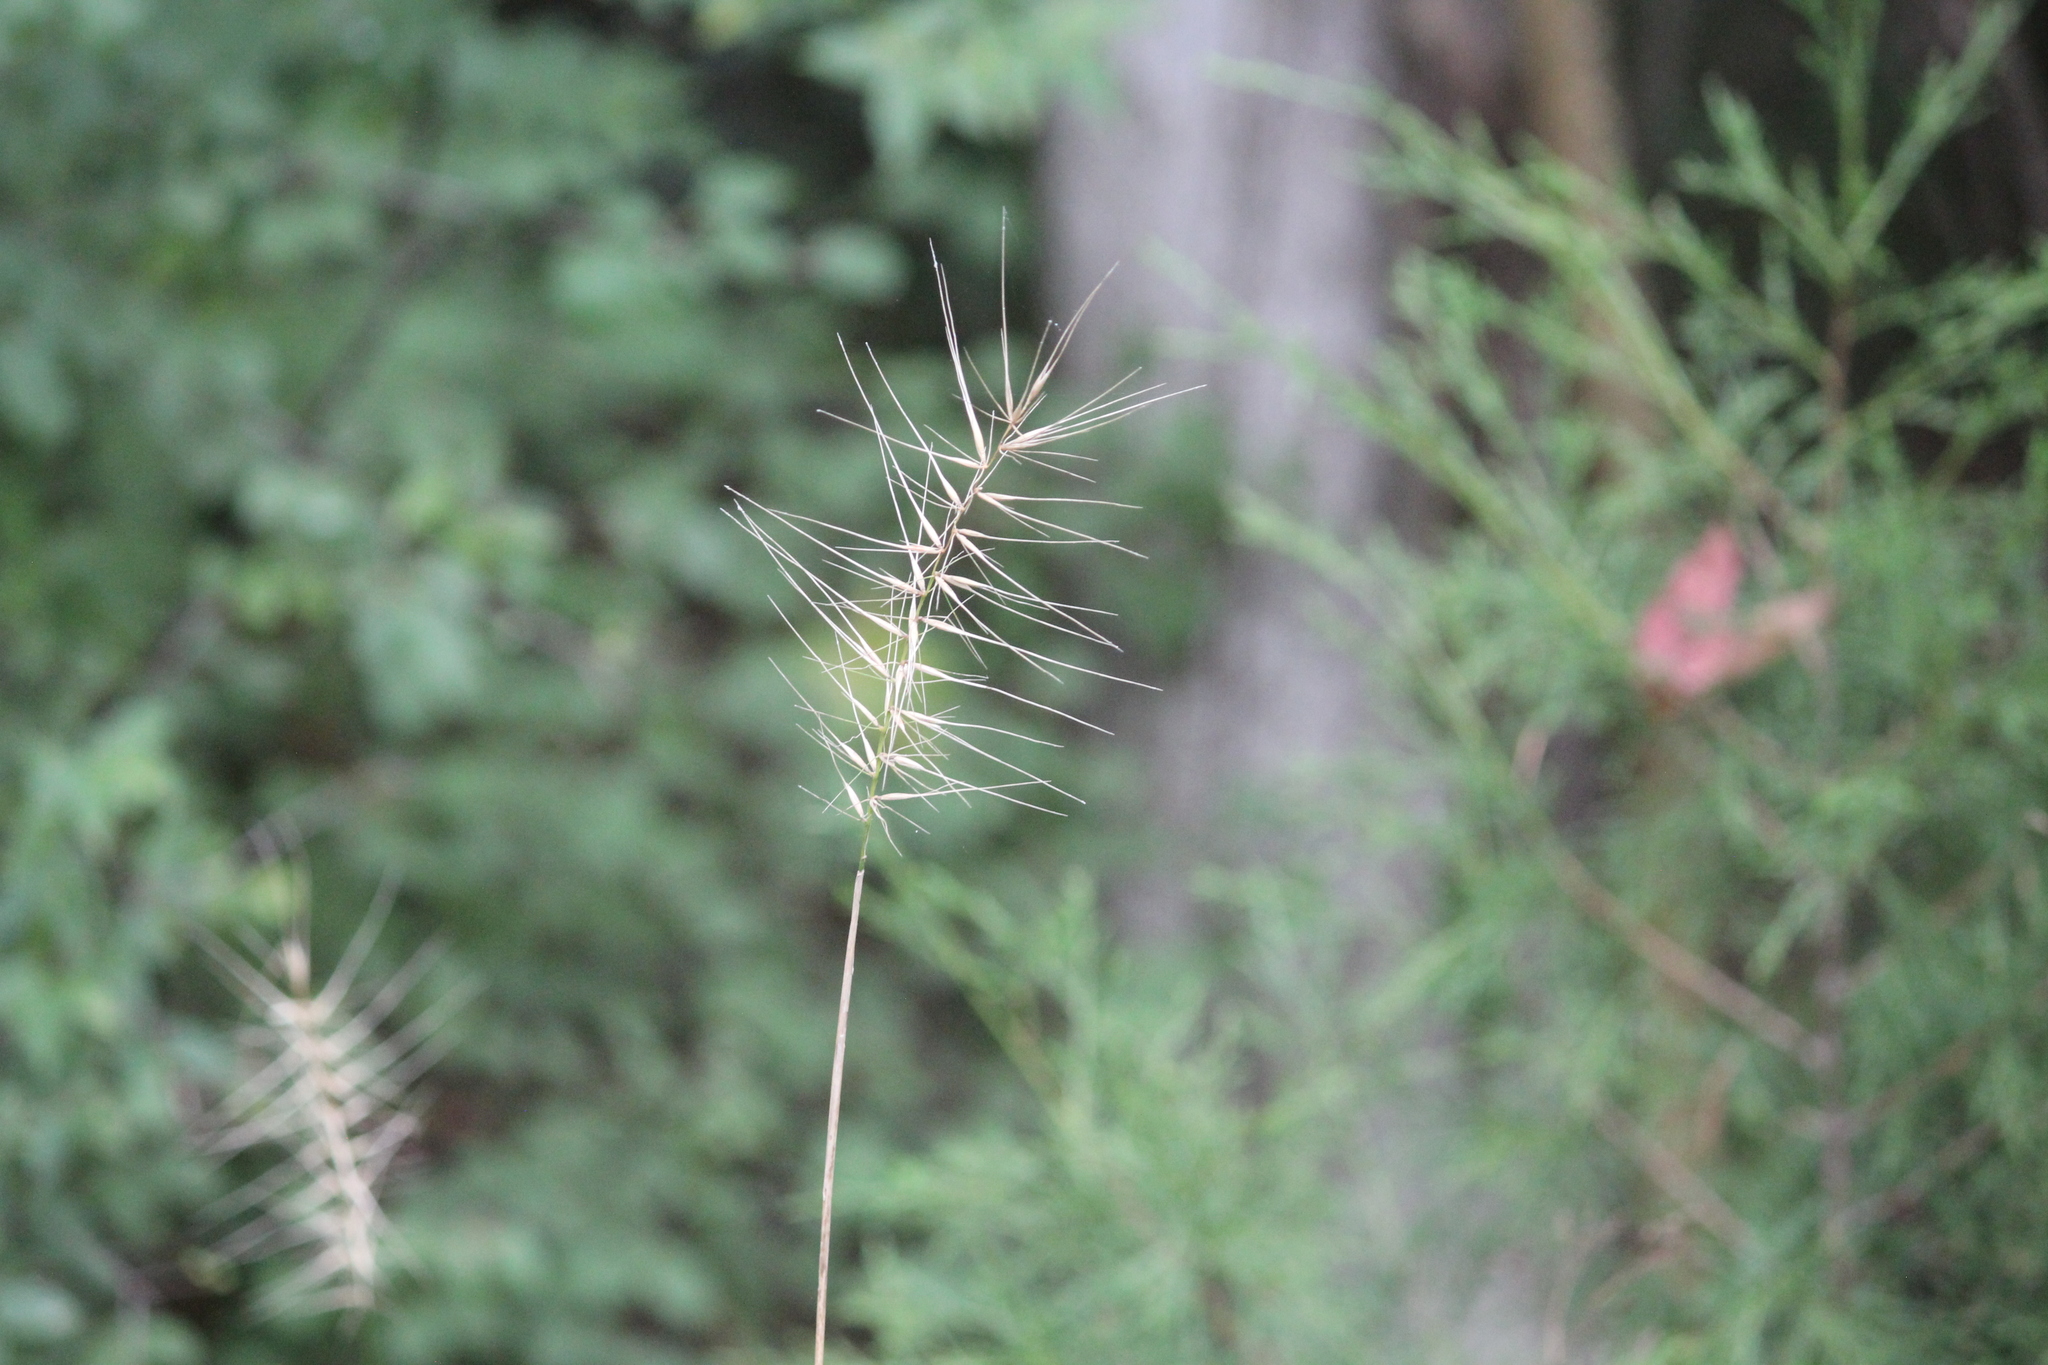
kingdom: Plantae
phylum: Tracheophyta
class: Liliopsida
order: Poales
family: Poaceae
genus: Elymus
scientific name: Elymus hystrix
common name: Bottlebrush grass
